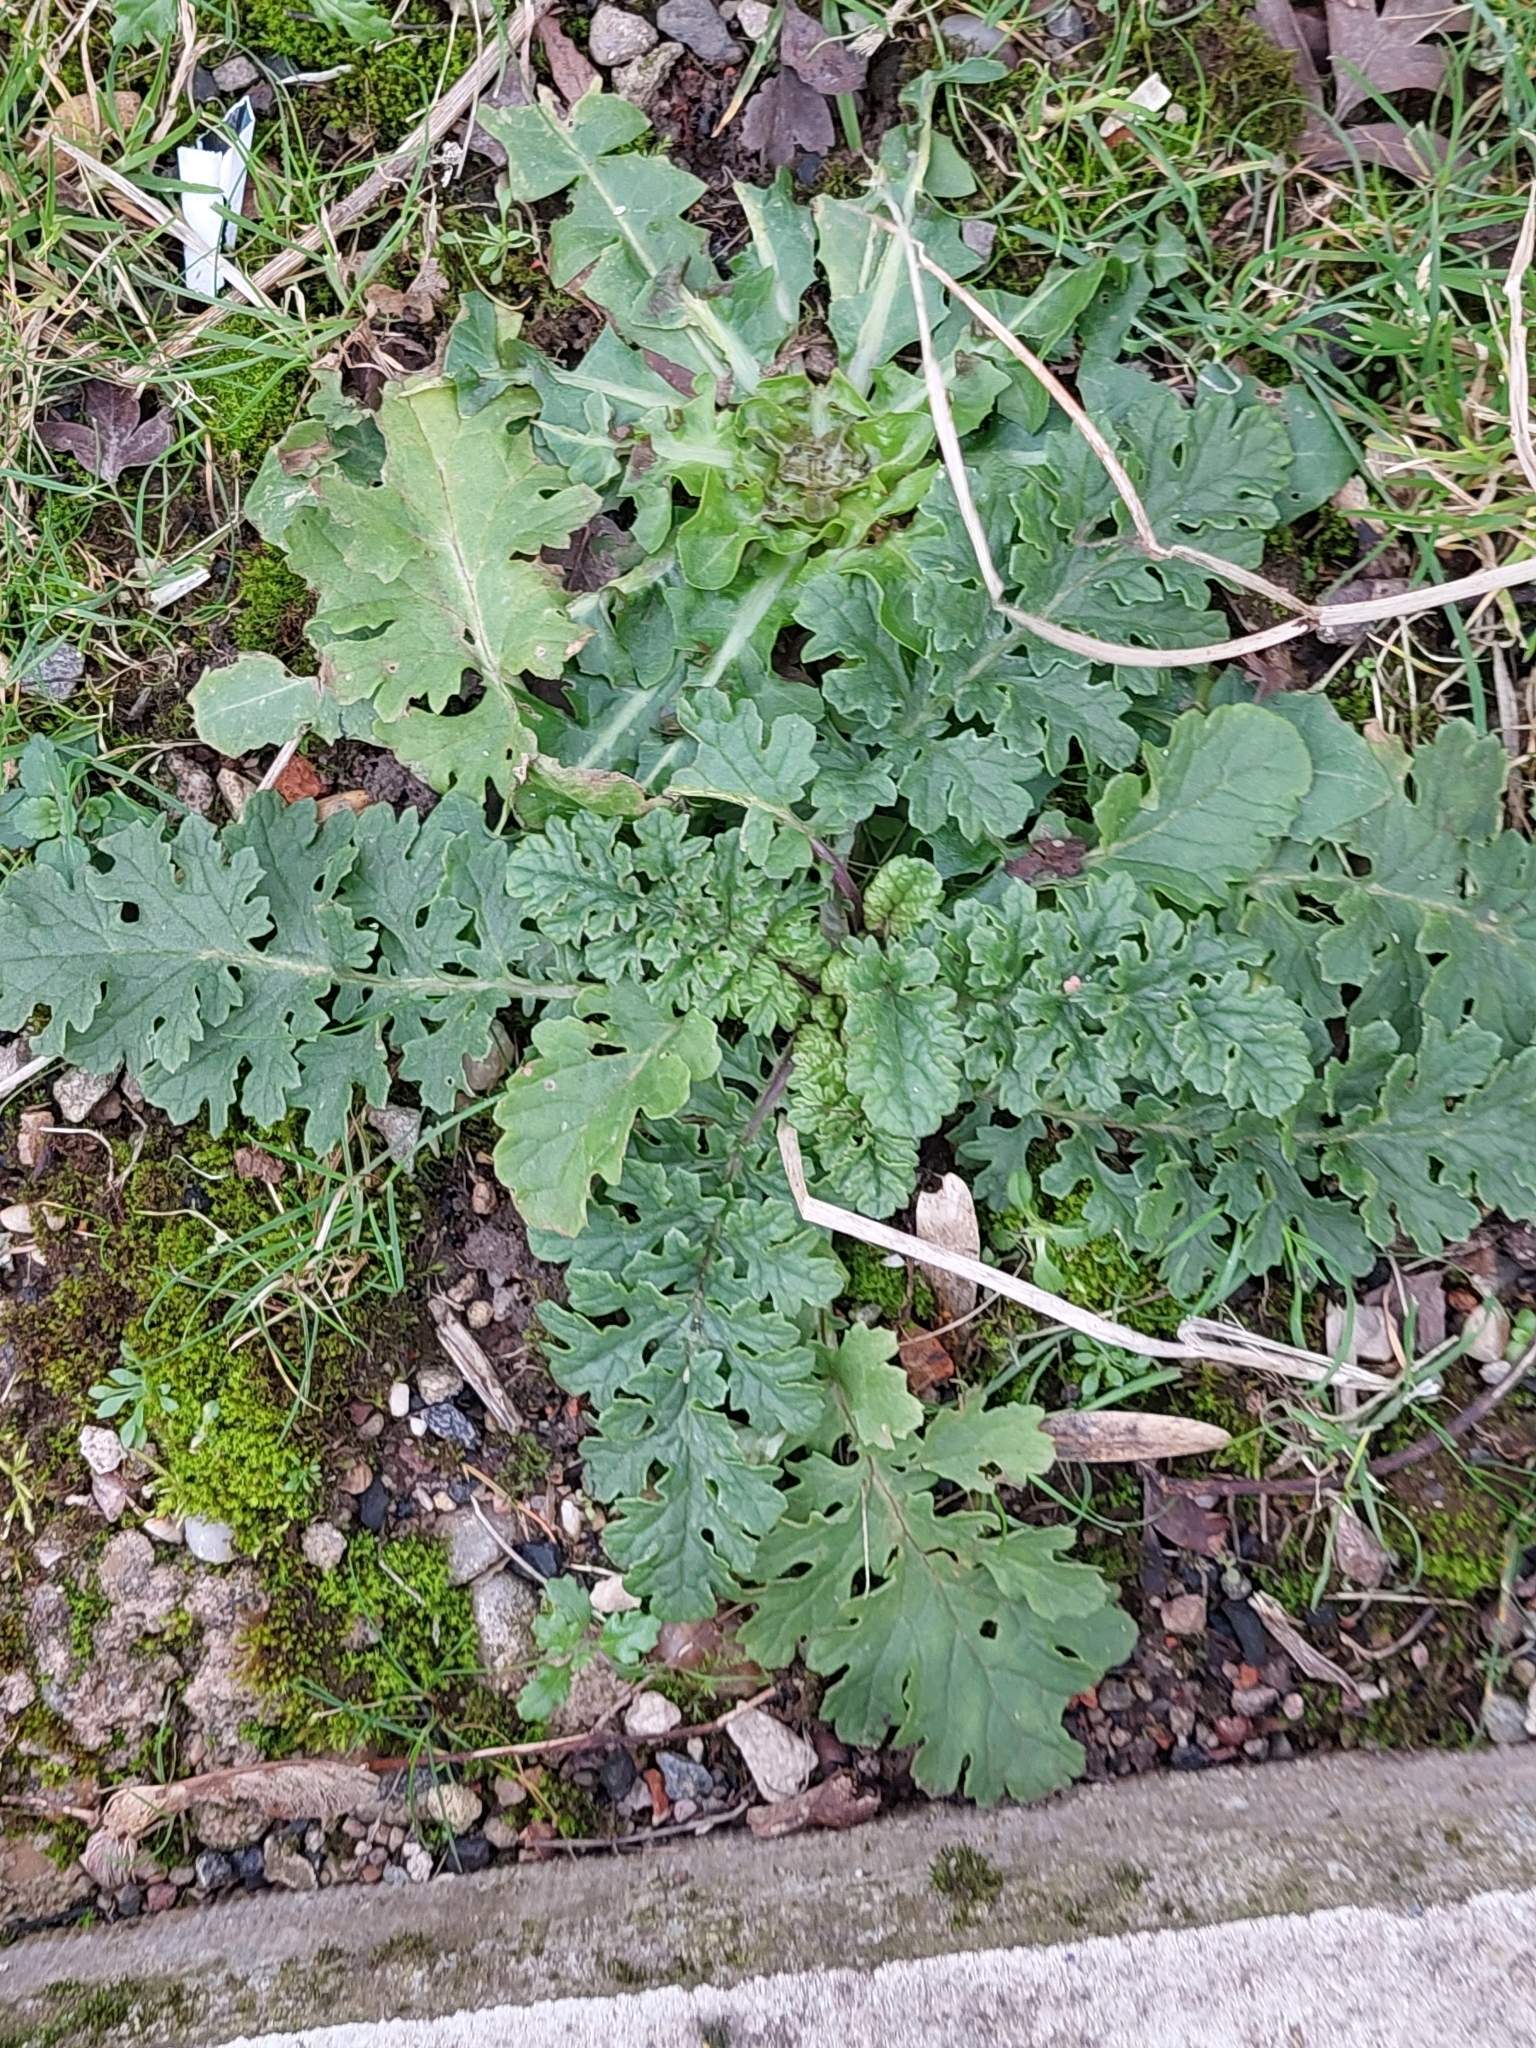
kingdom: Plantae
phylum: Tracheophyta
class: Magnoliopsida
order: Asterales
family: Asteraceae
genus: Jacobaea
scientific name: Jacobaea vulgaris
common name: Stinking willie
